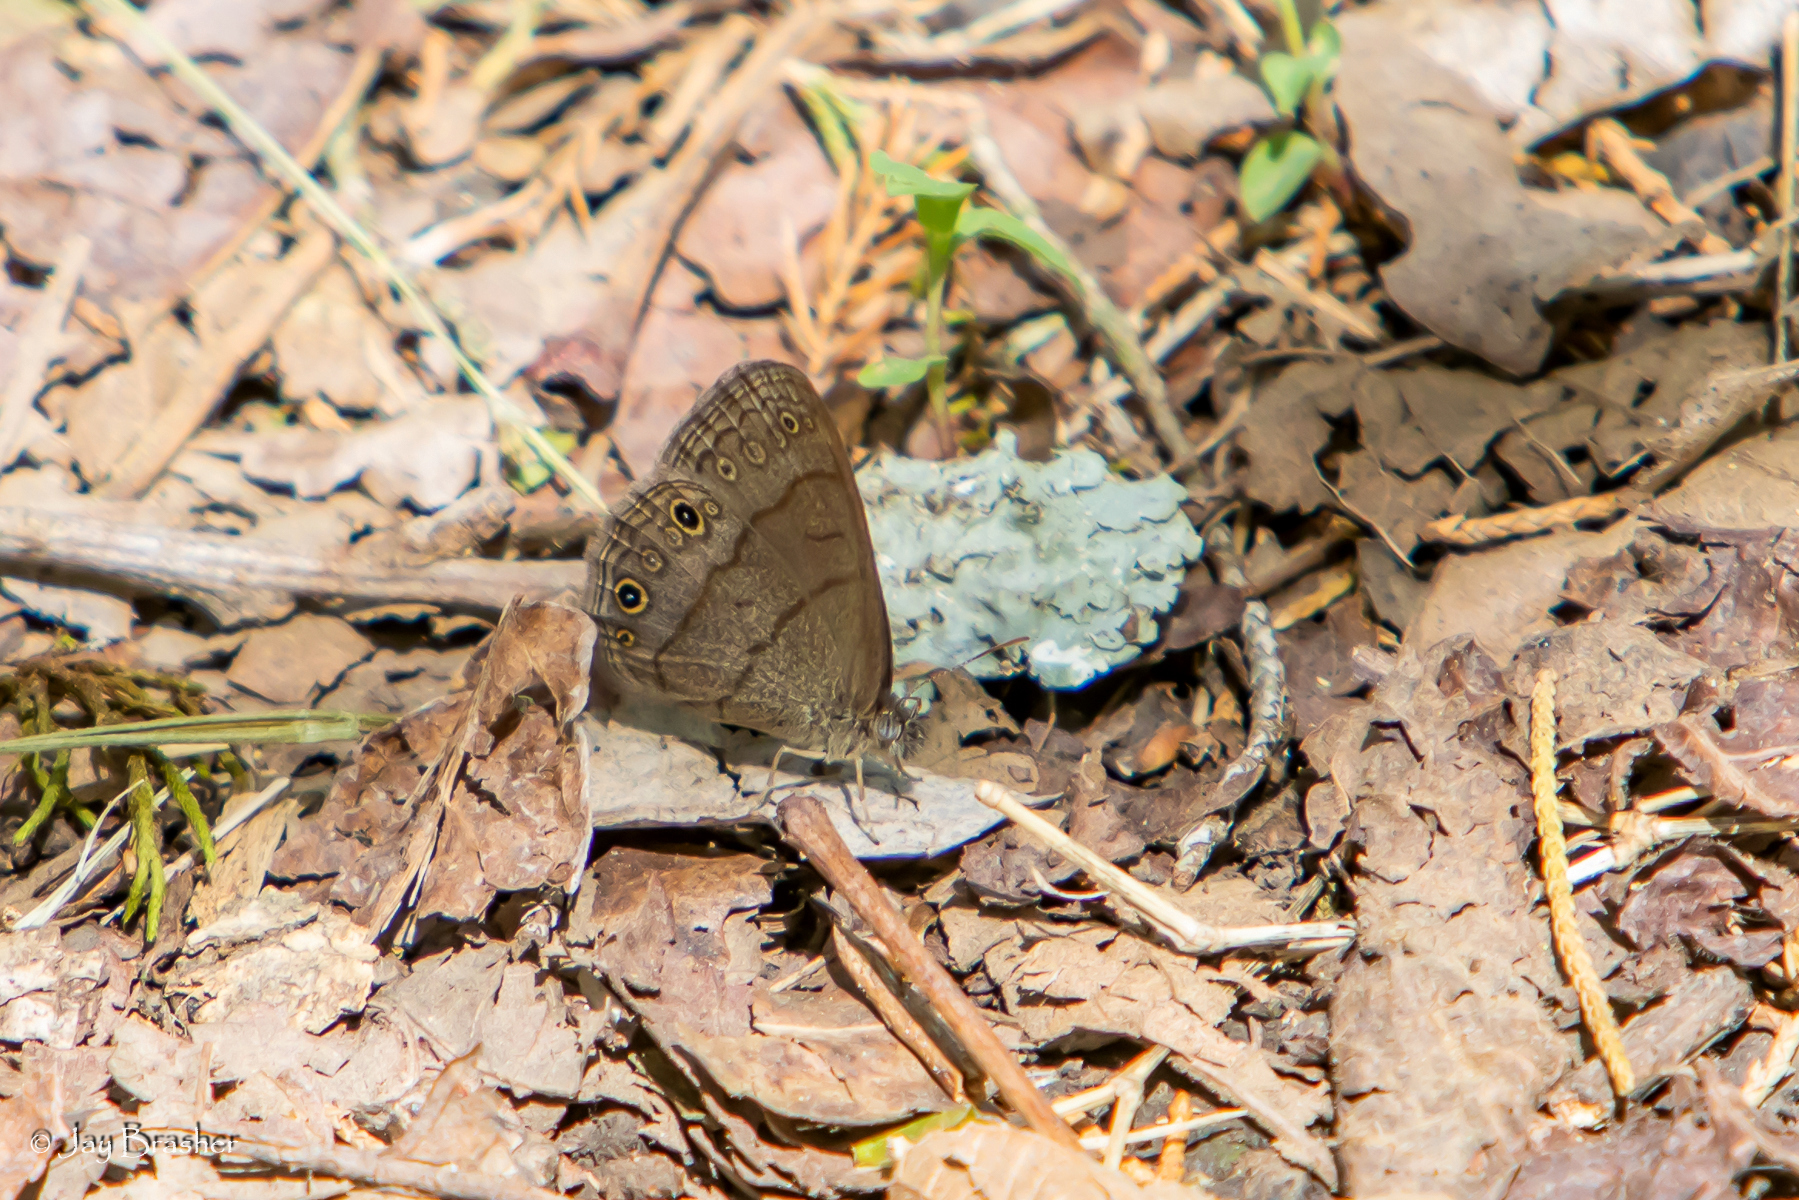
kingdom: Animalia
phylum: Arthropoda
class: Insecta
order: Lepidoptera
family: Nymphalidae
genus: Hermeuptychia
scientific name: Hermeuptychia hermes
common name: Hermes satyr
